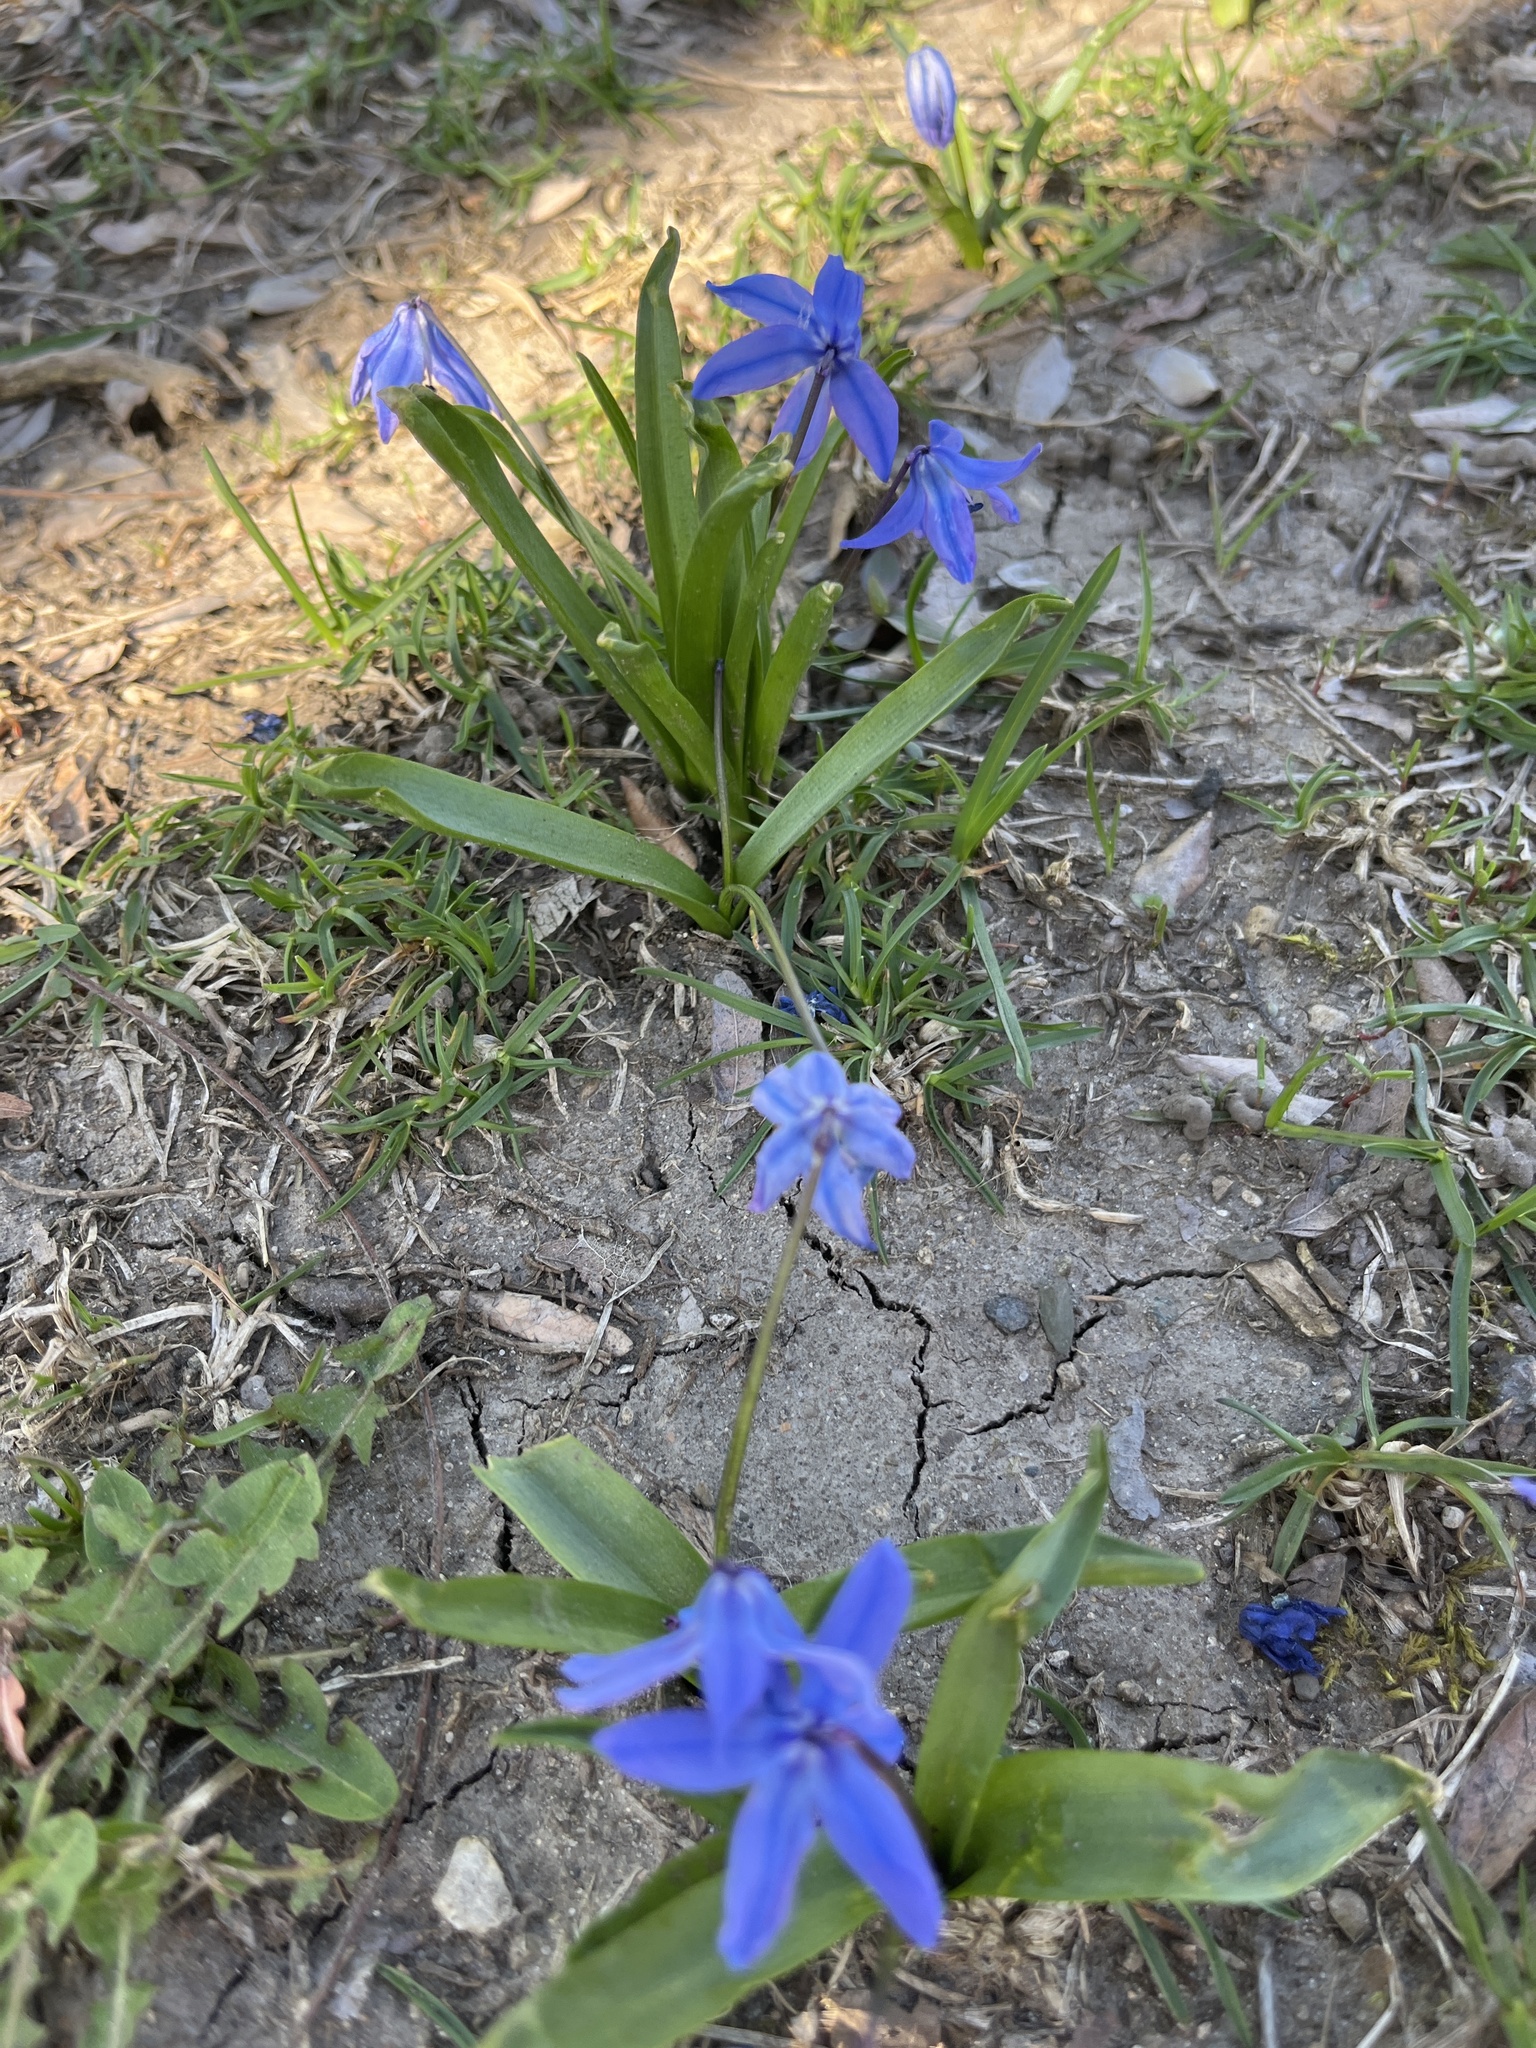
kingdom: Plantae
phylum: Tracheophyta
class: Liliopsida
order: Asparagales
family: Asparagaceae
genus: Scilla
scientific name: Scilla siberica
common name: Siberian squill
